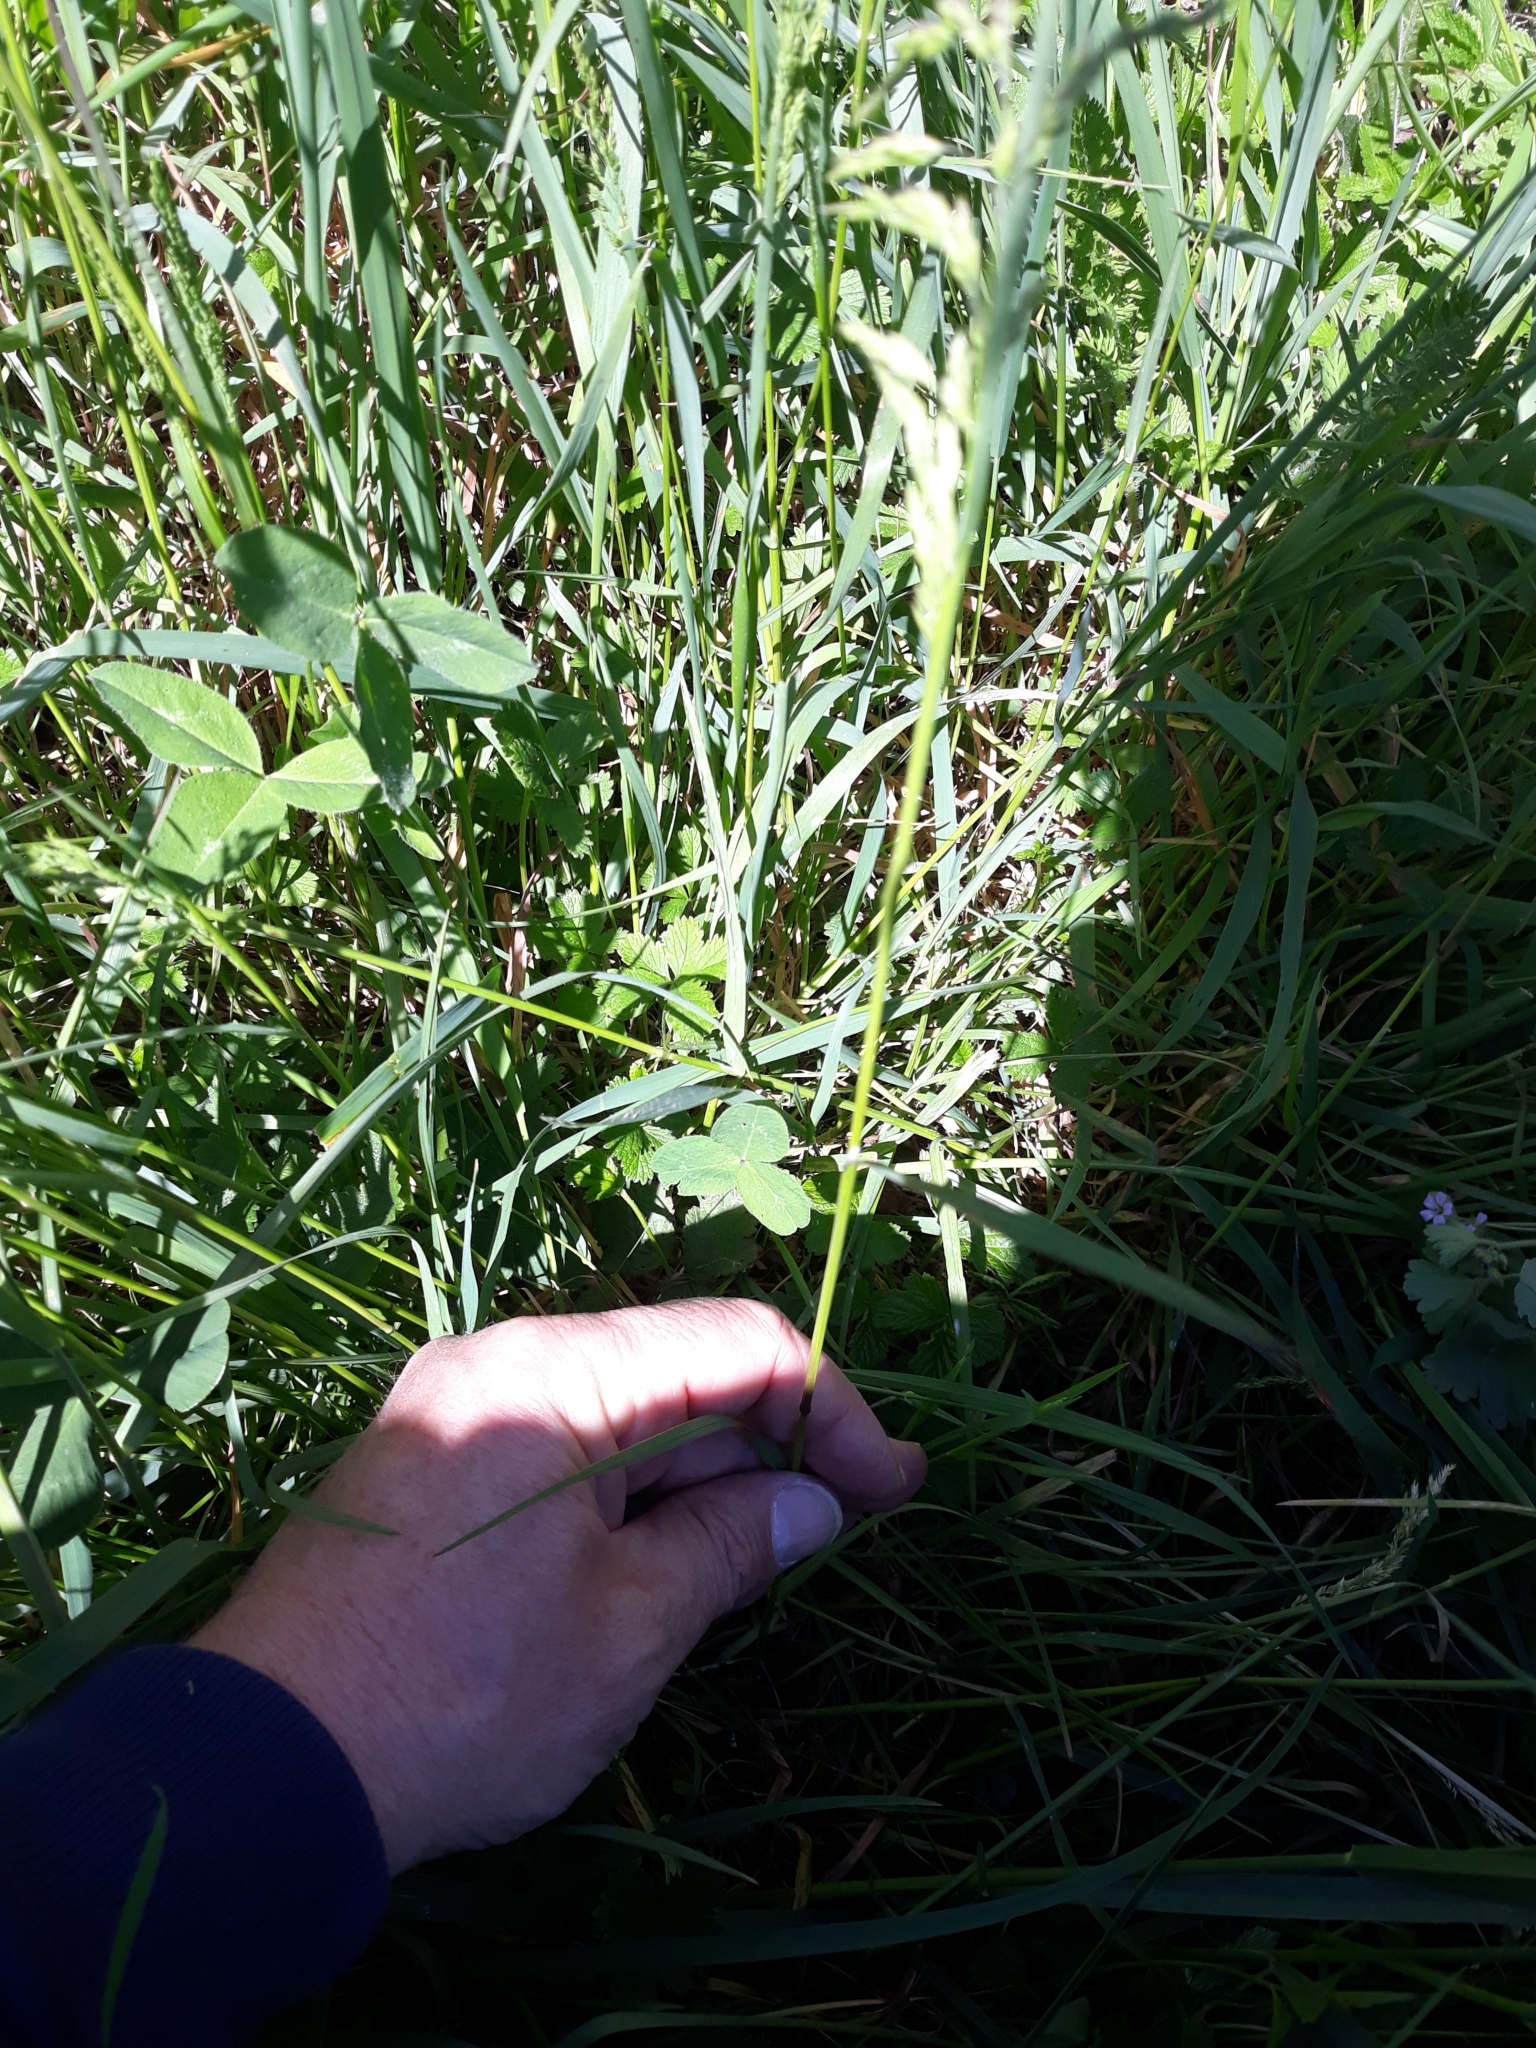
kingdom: Plantae
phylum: Tracheophyta
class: Liliopsida
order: Poales
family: Poaceae
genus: Poa
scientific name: Poa trivialis
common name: Rough bluegrass
